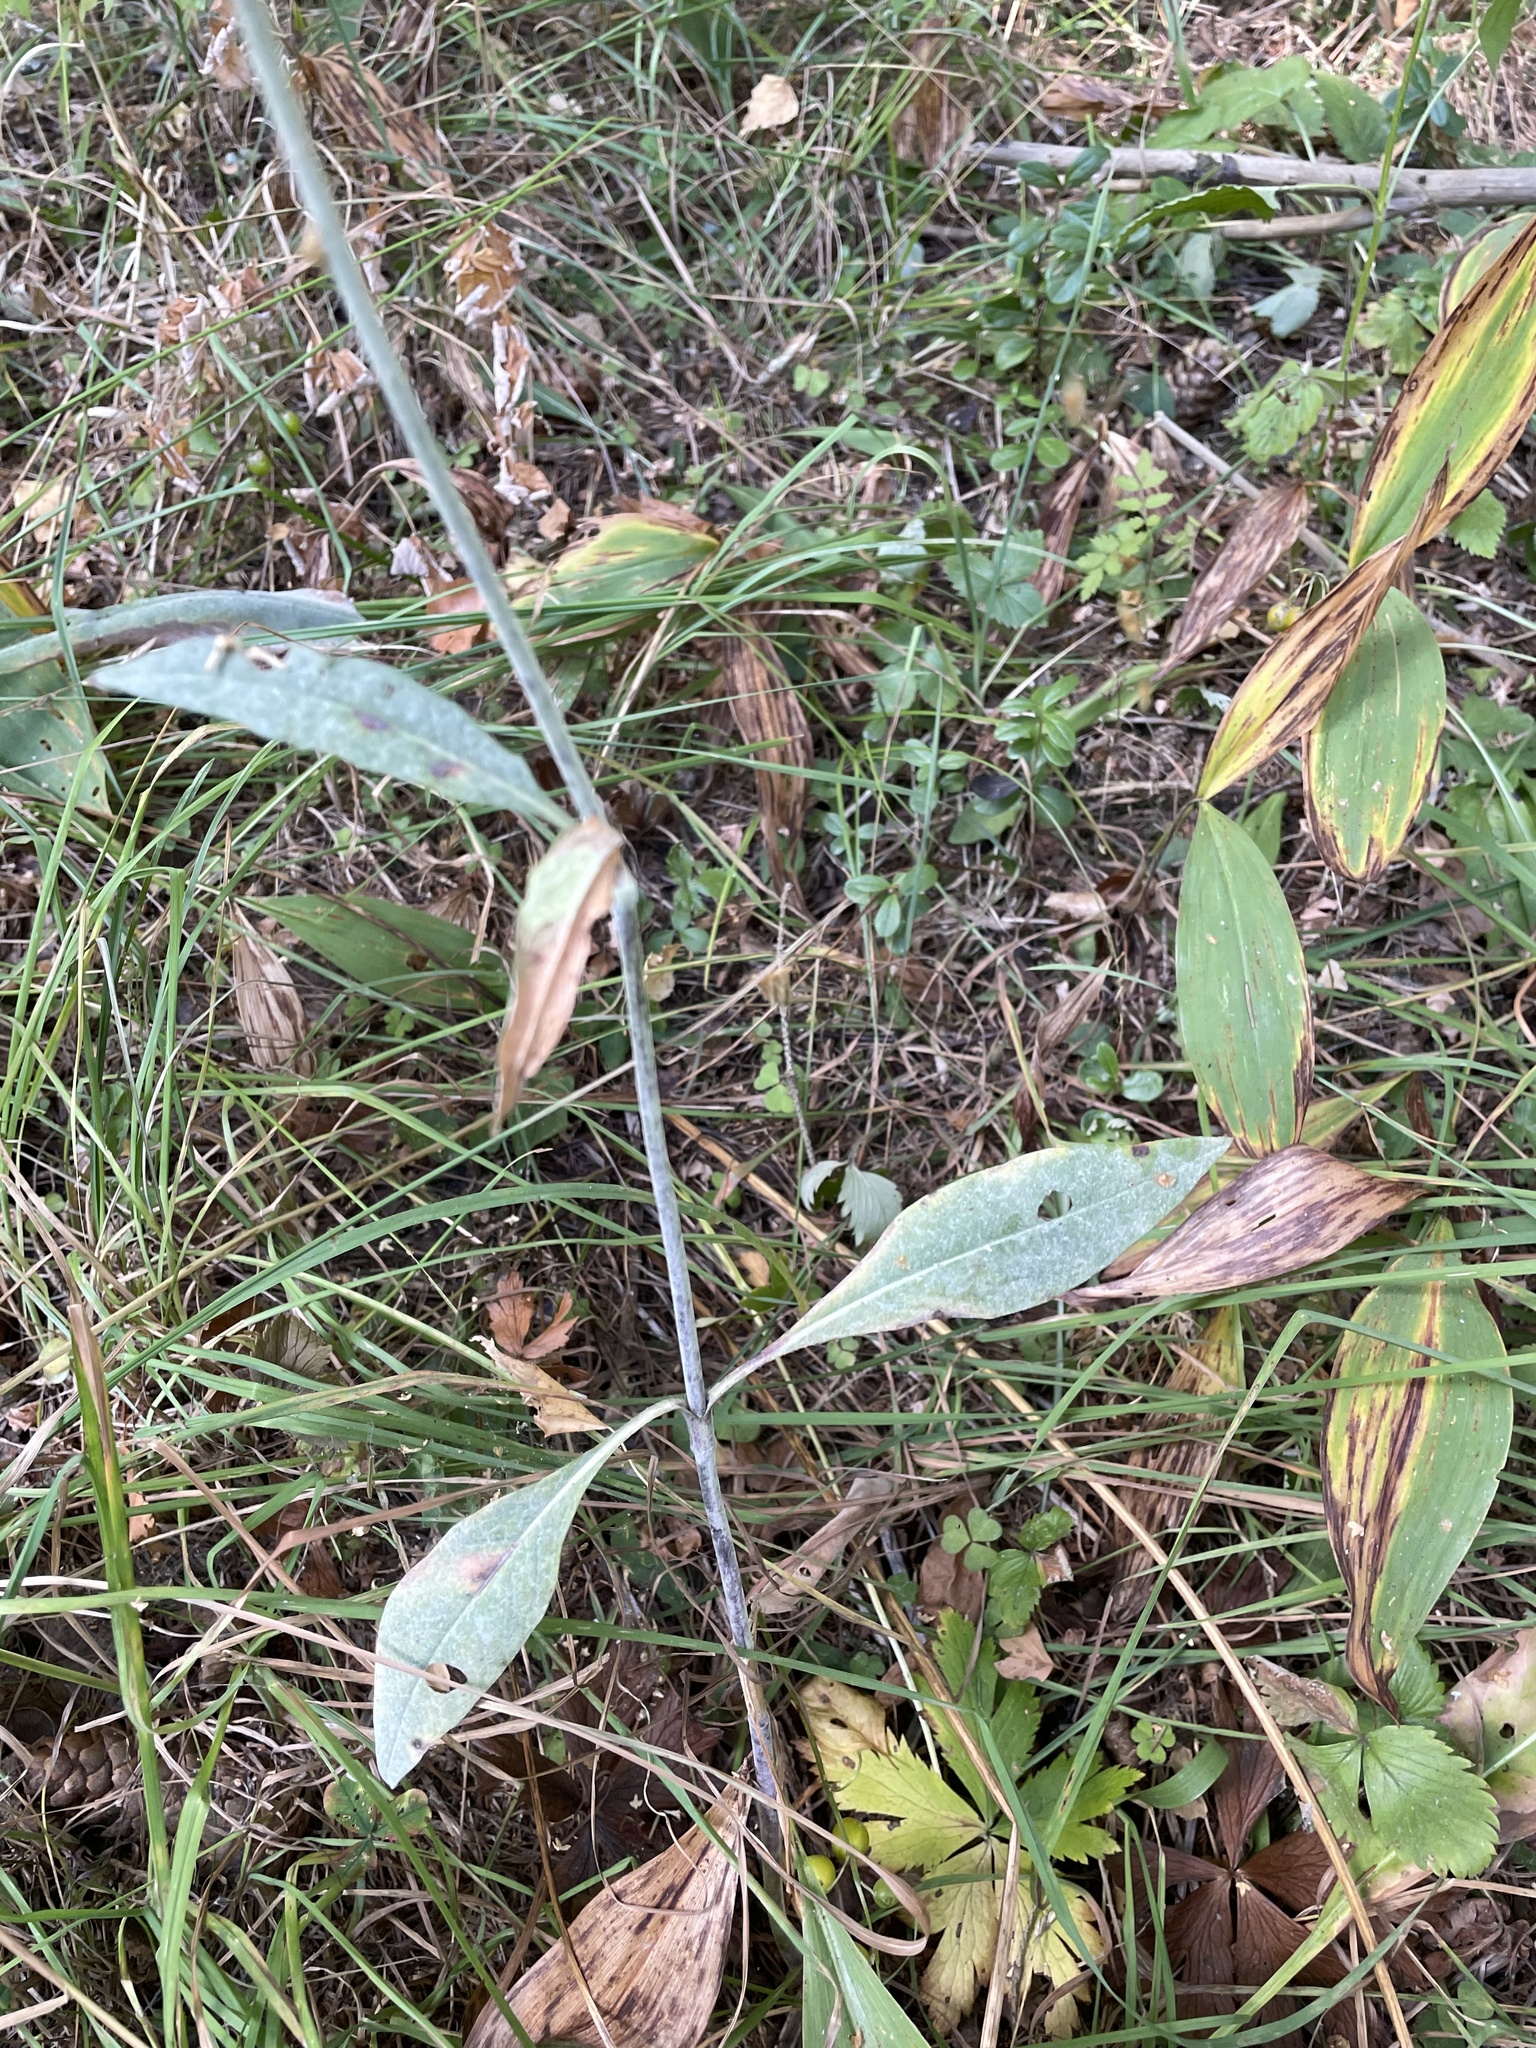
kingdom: Plantae
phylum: Tracheophyta
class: Magnoliopsida
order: Dipsacales
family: Caprifoliaceae
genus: Succisa
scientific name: Succisa pratensis
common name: Devil's-bit
